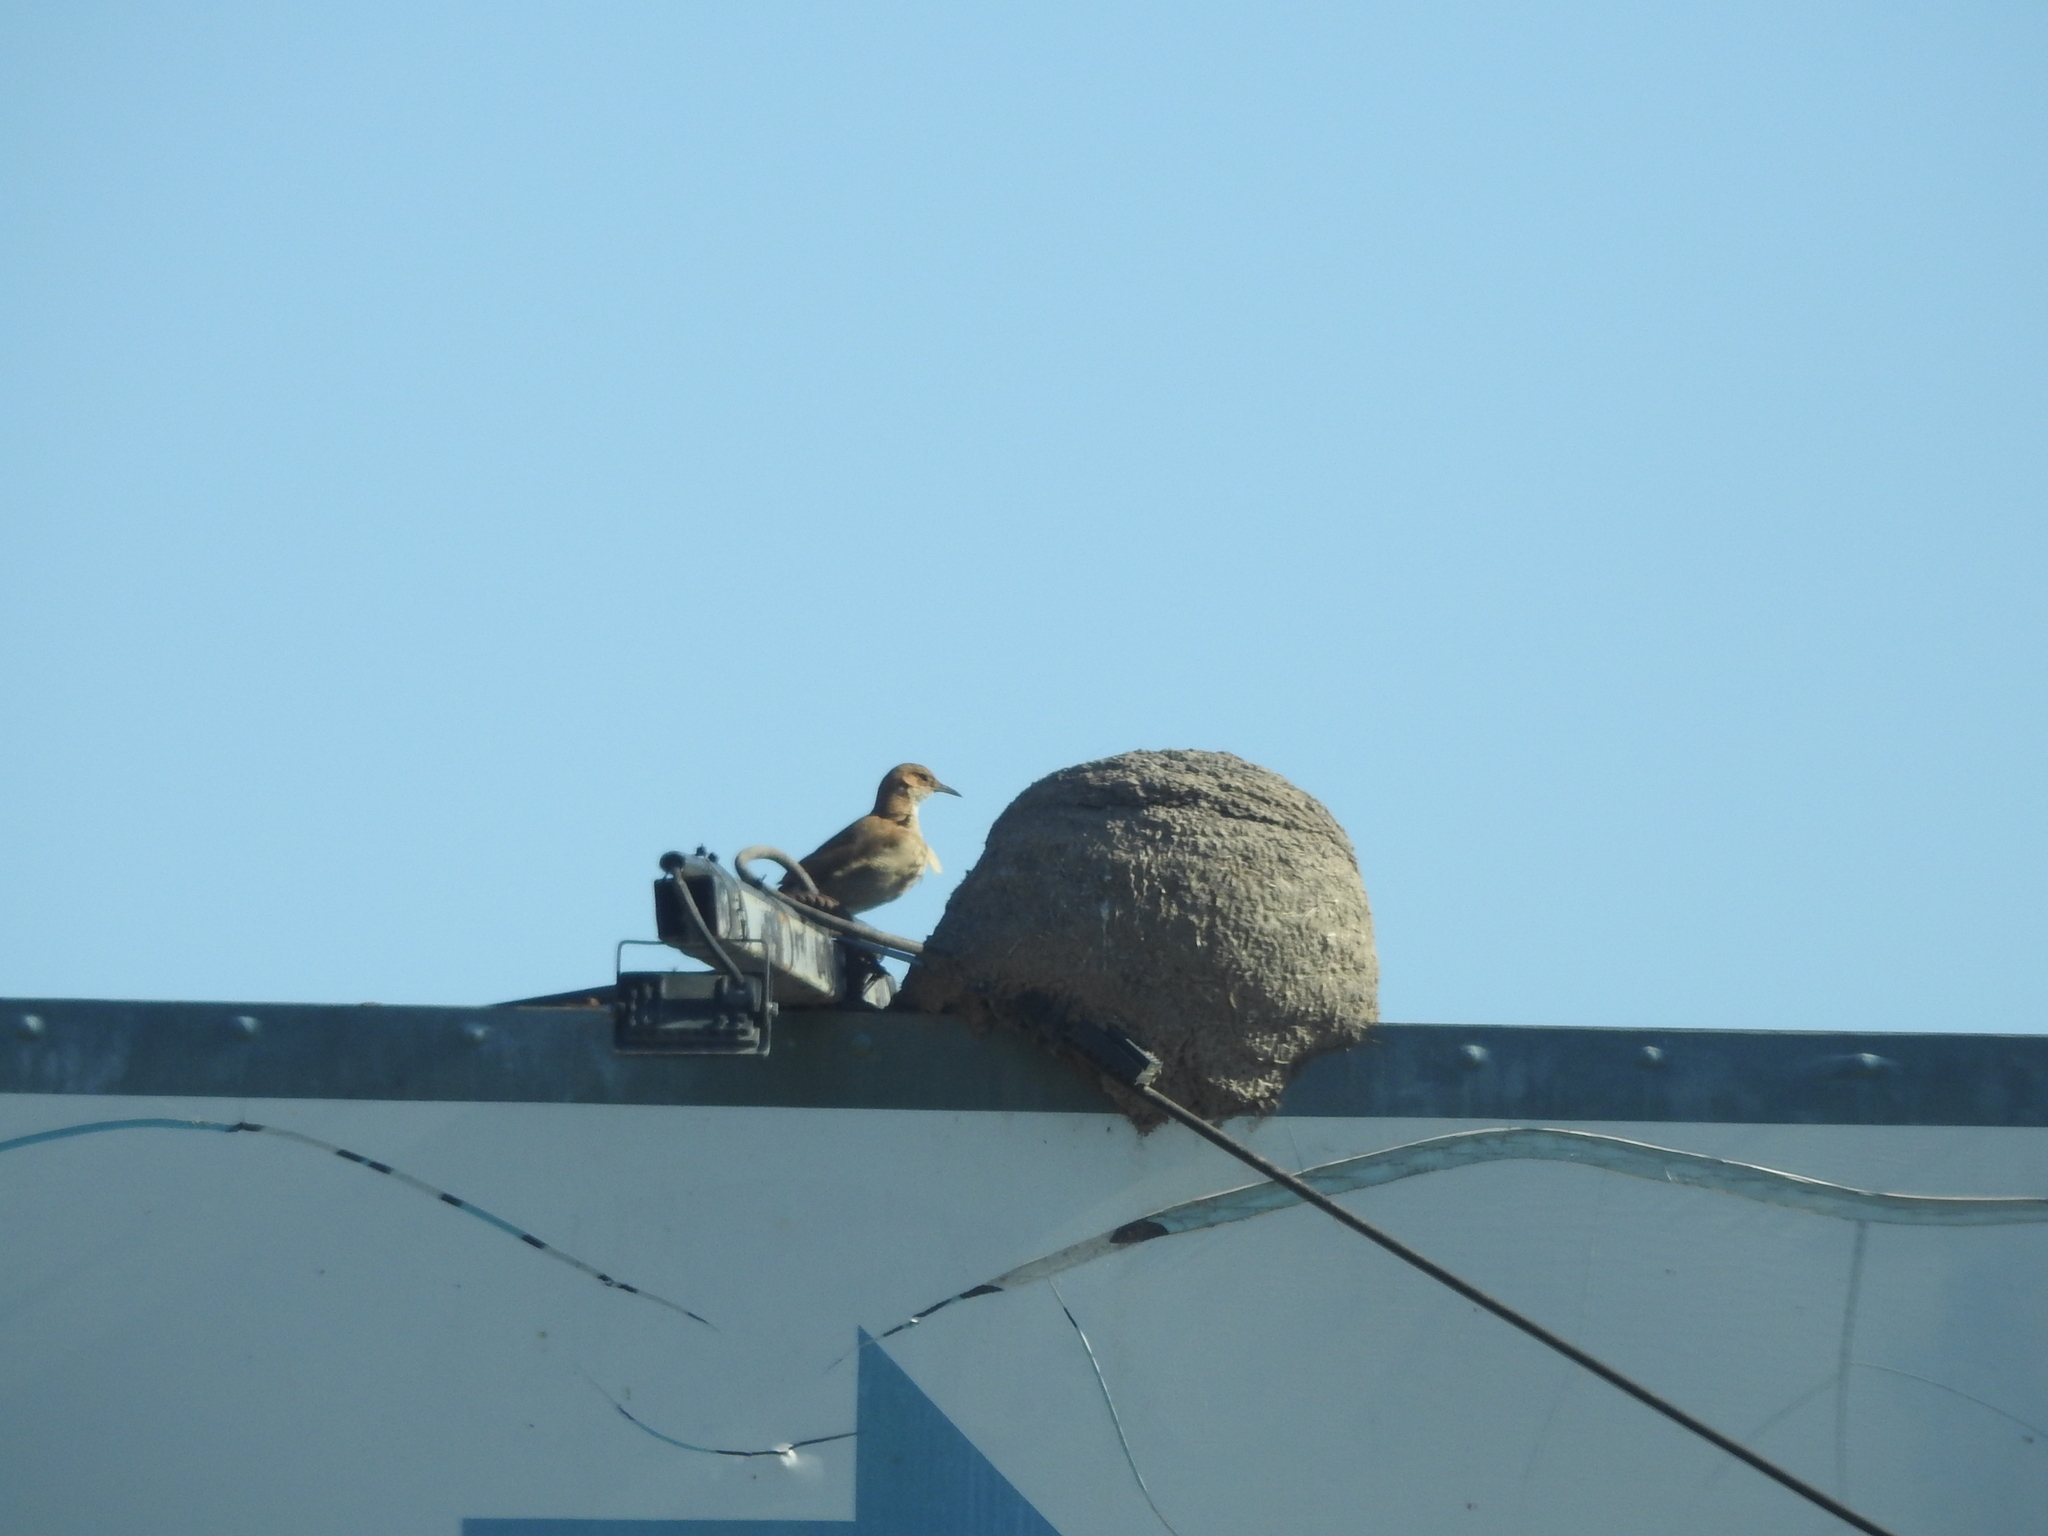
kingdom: Animalia
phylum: Chordata
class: Aves
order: Passeriformes
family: Furnariidae
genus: Furnarius
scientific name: Furnarius rufus
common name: Rufous hornero
